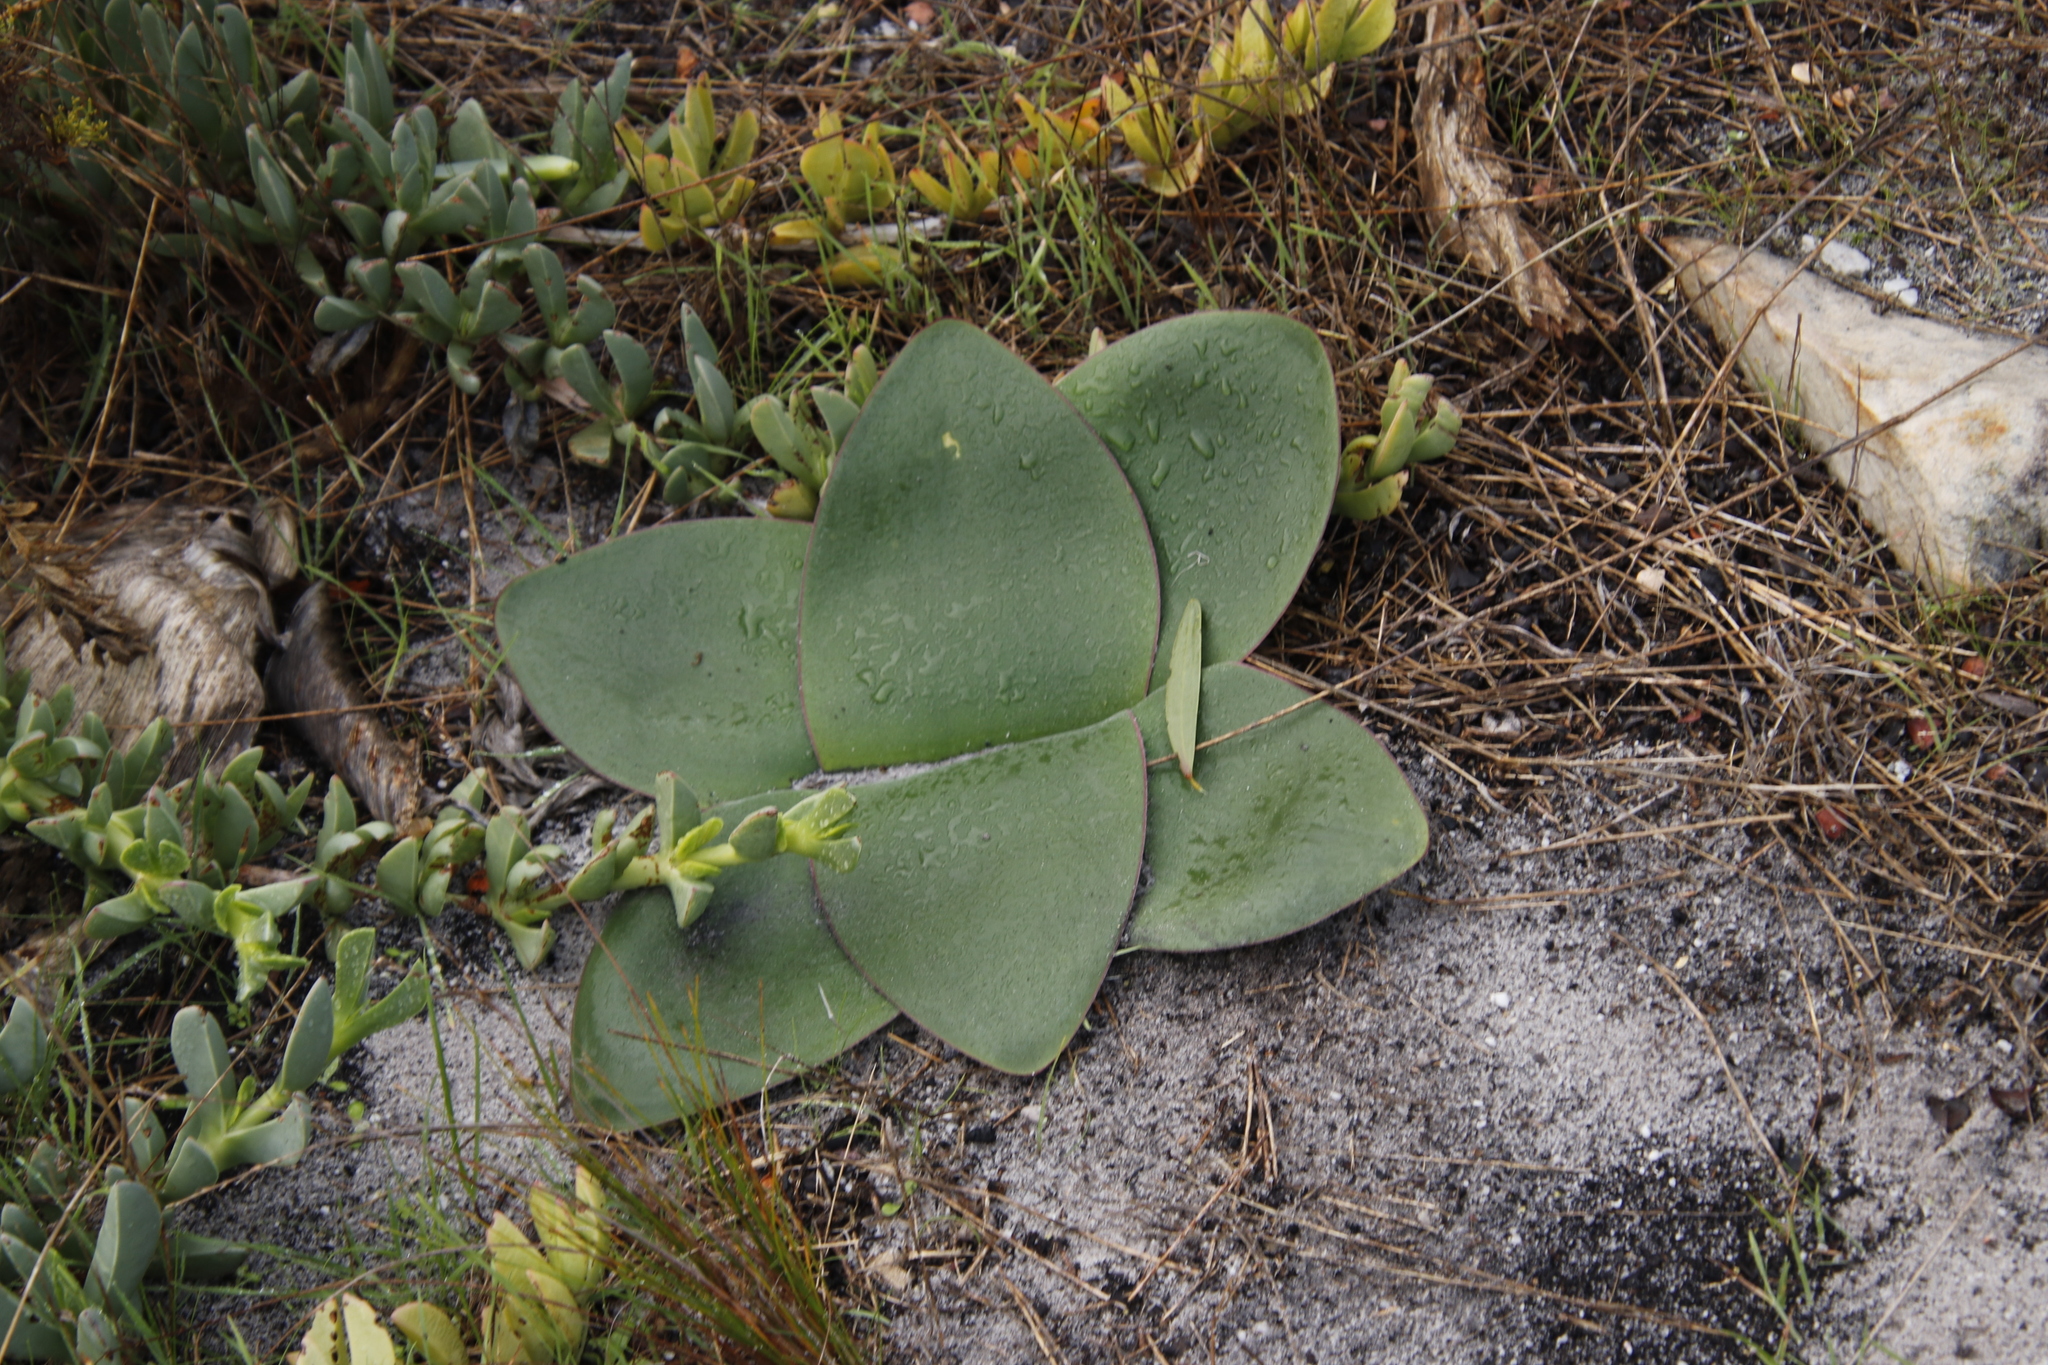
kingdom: Plantae
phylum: Tracheophyta
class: Liliopsida
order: Asparagales
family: Amaryllidaceae
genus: Brunsvigia
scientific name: Brunsvigia orientalis
